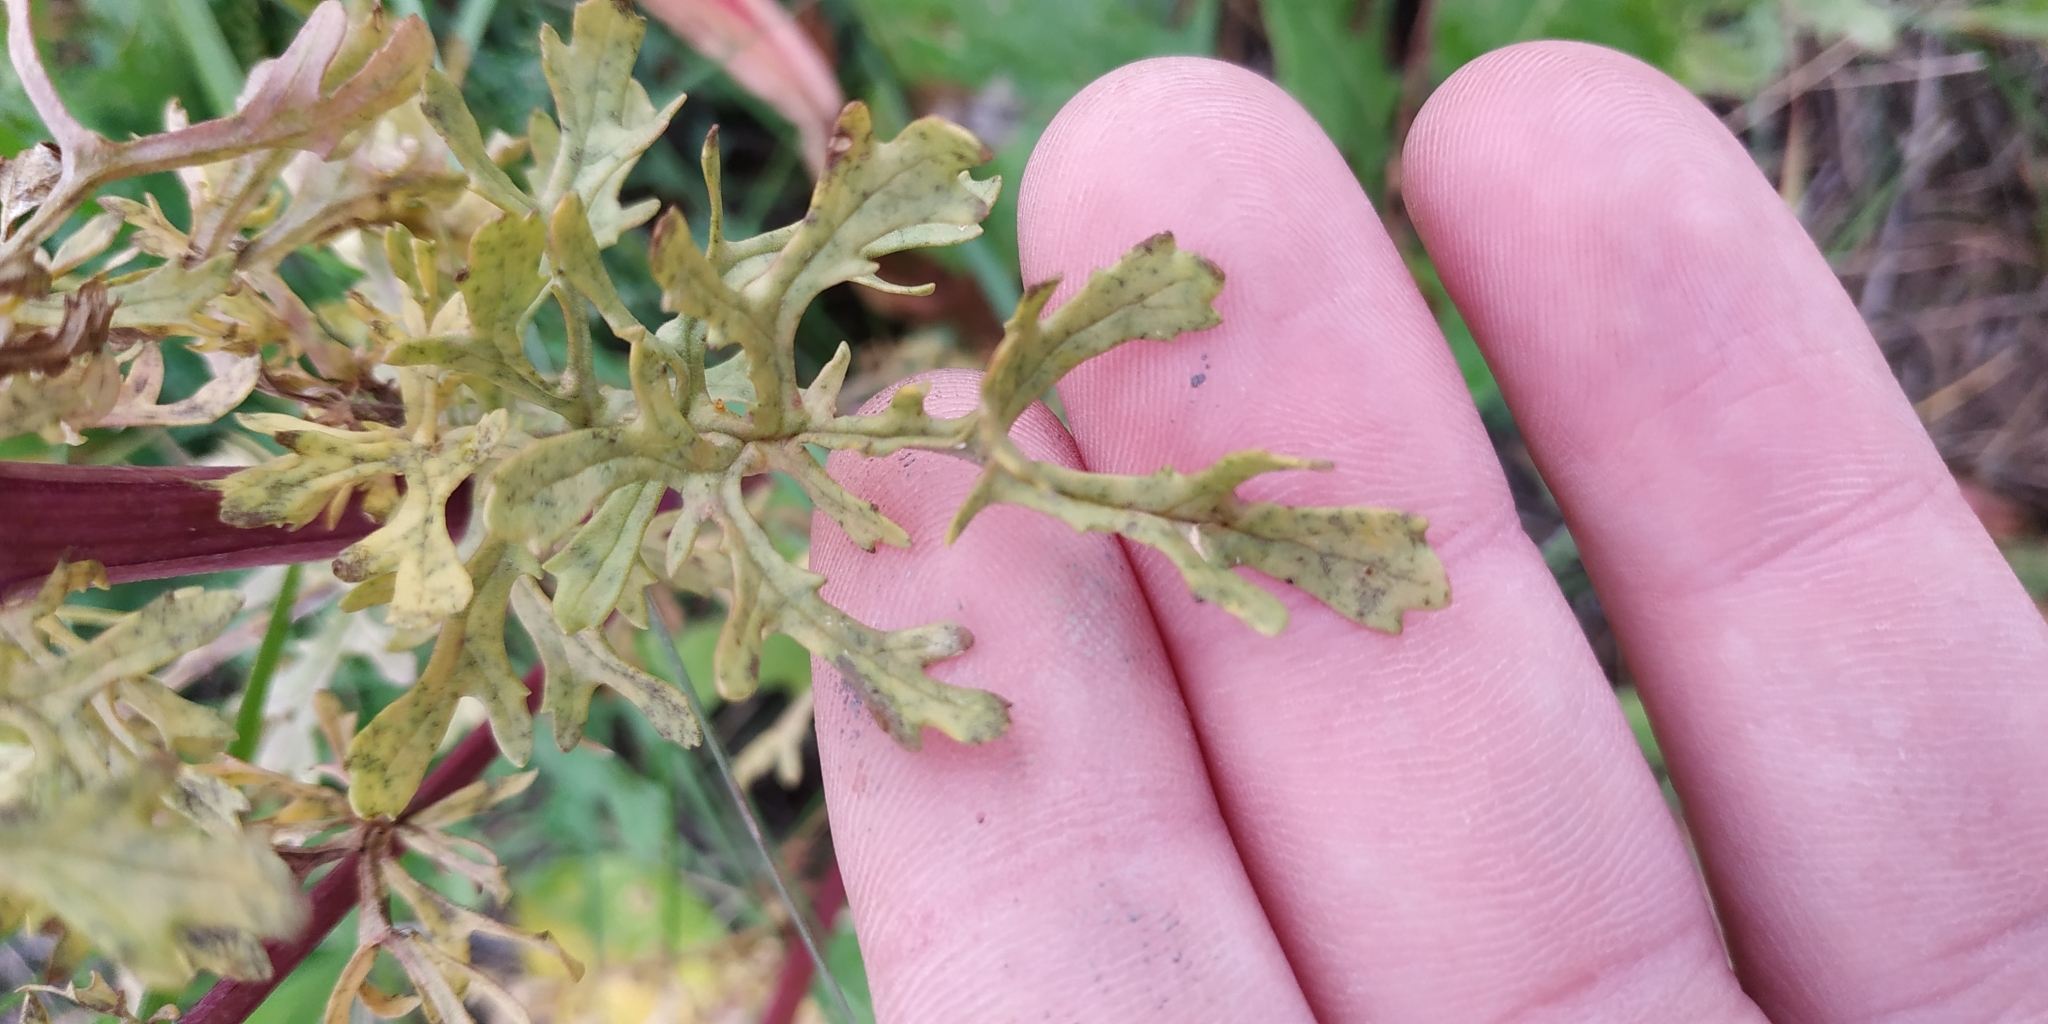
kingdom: Plantae
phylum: Tracheophyta
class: Magnoliopsida
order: Asterales
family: Asteraceae
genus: Jacobaea
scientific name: Jacobaea erucifolia
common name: Hoary ragwort
